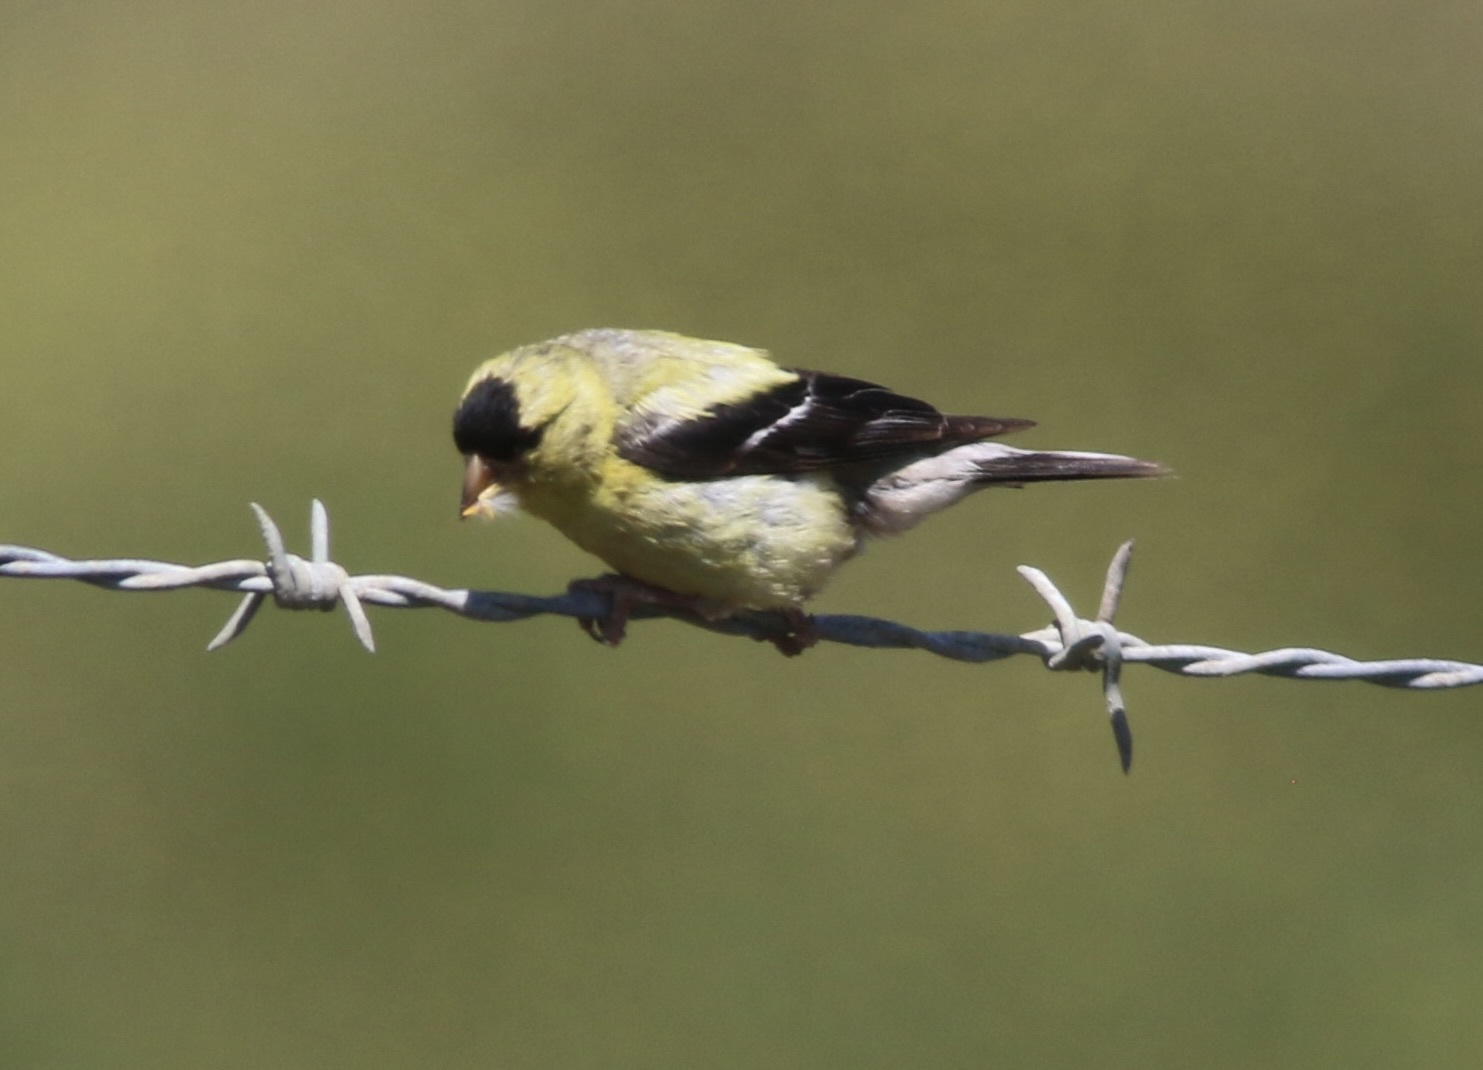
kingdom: Animalia
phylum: Chordata
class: Aves
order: Passeriformes
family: Fringillidae
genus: Spinus
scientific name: Spinus tristis
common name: American goldfinch
